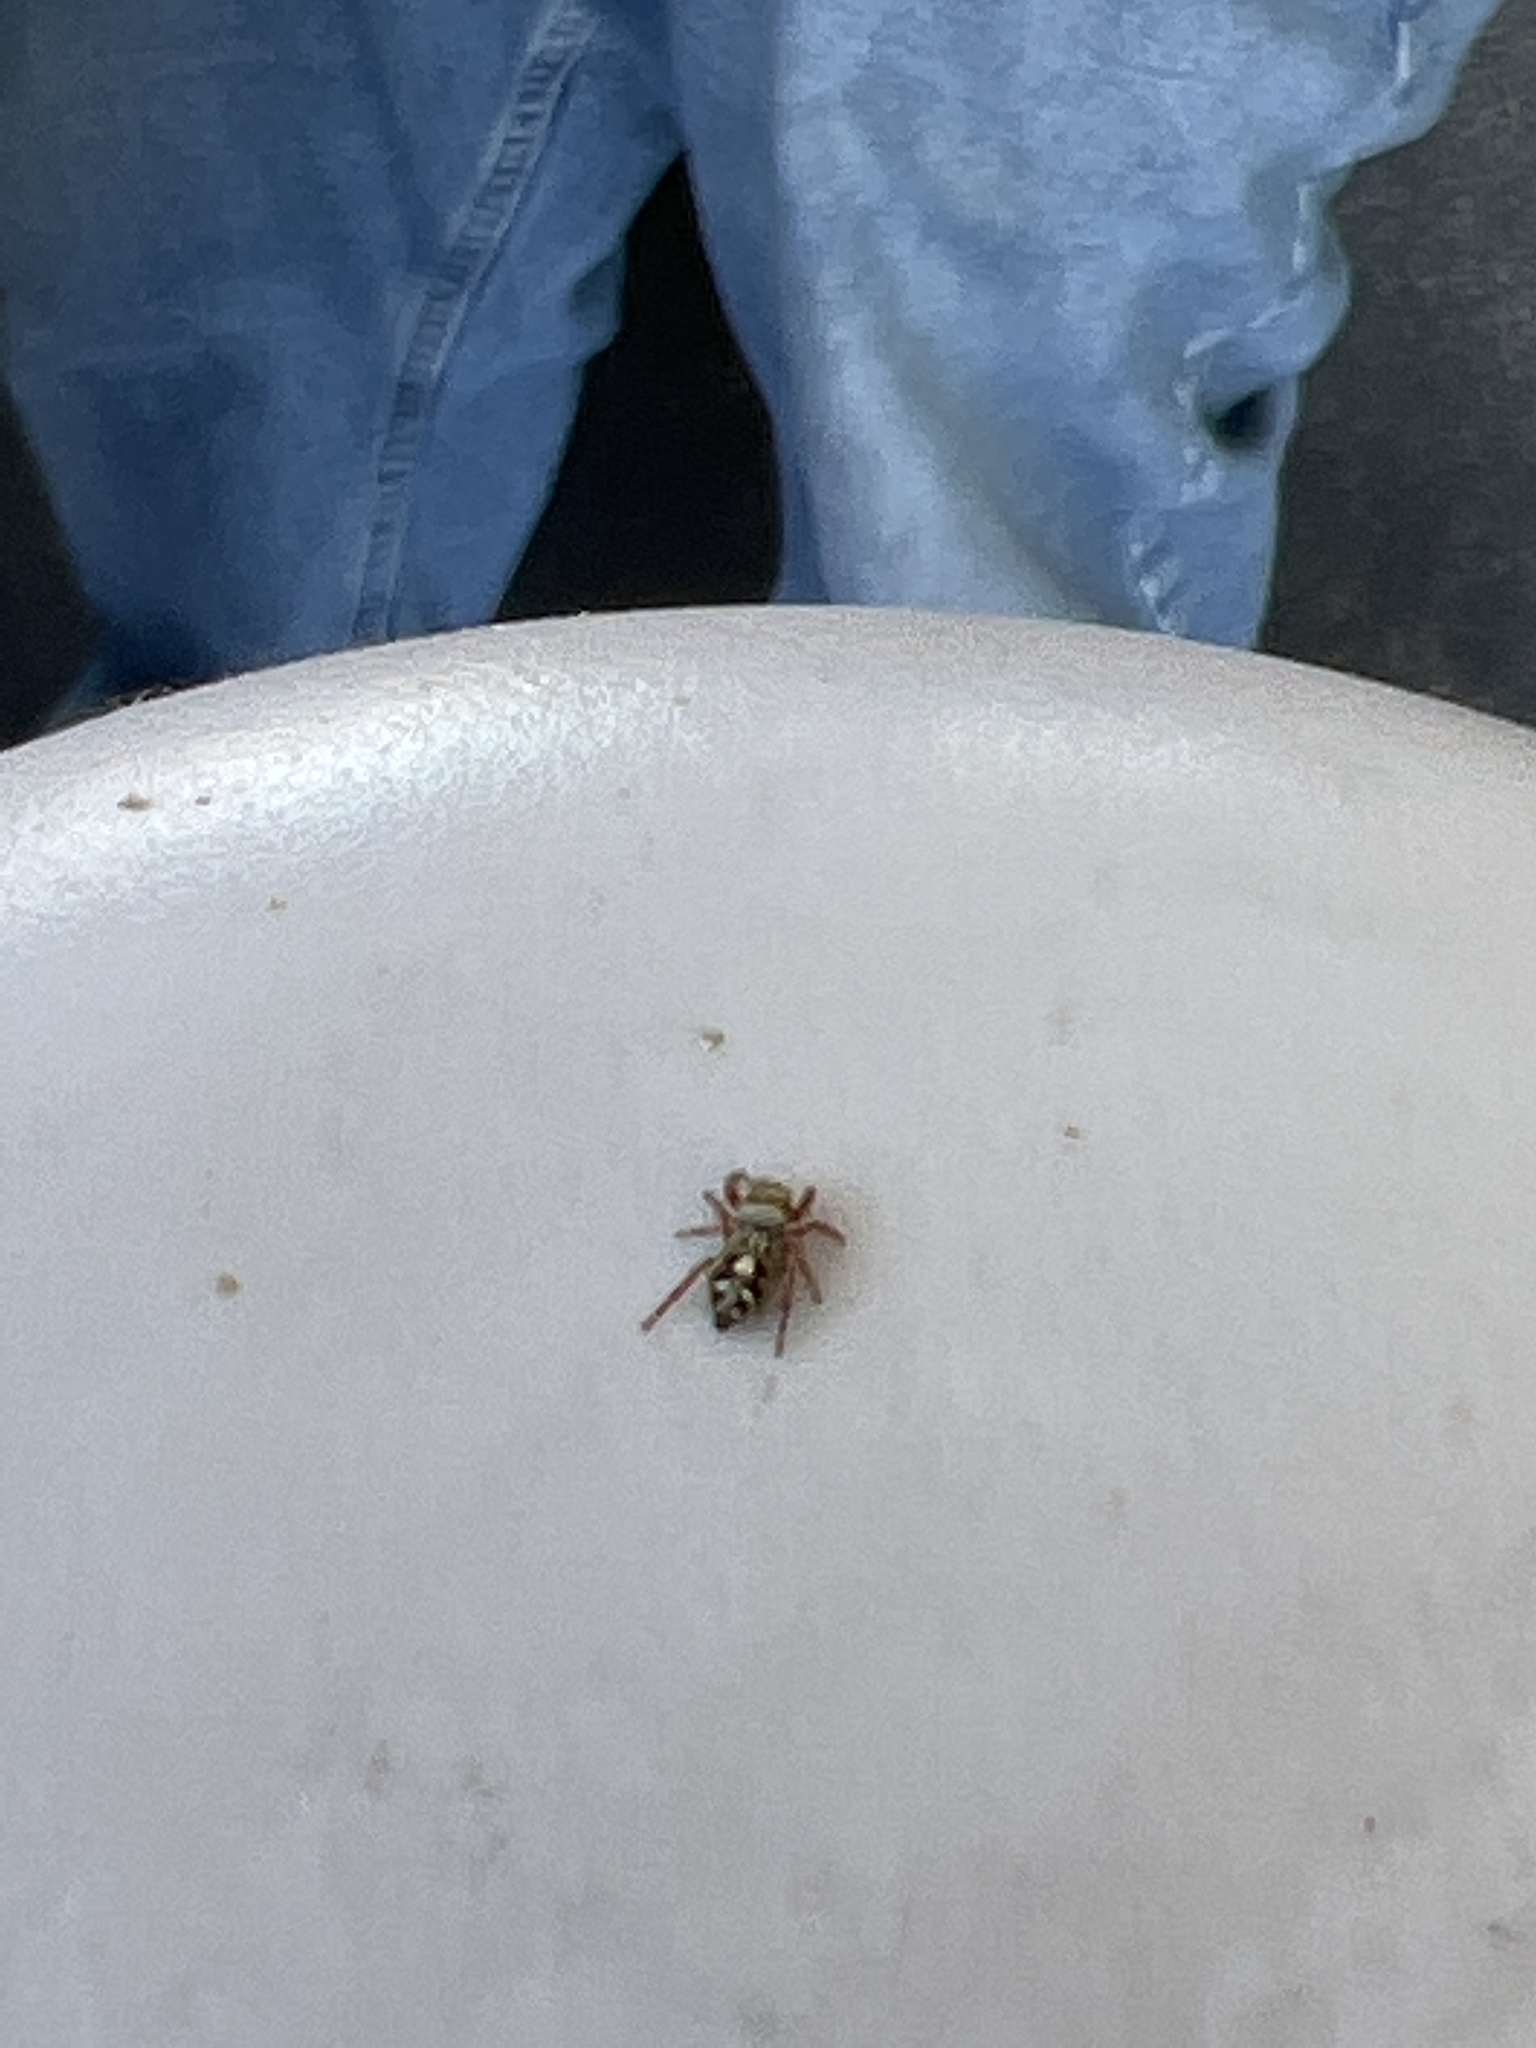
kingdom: Animalia
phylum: Arthropoda
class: Arachnida
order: Araneae
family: Salticidae
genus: Phidippus
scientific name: Phidippus audax
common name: Bold jumper
